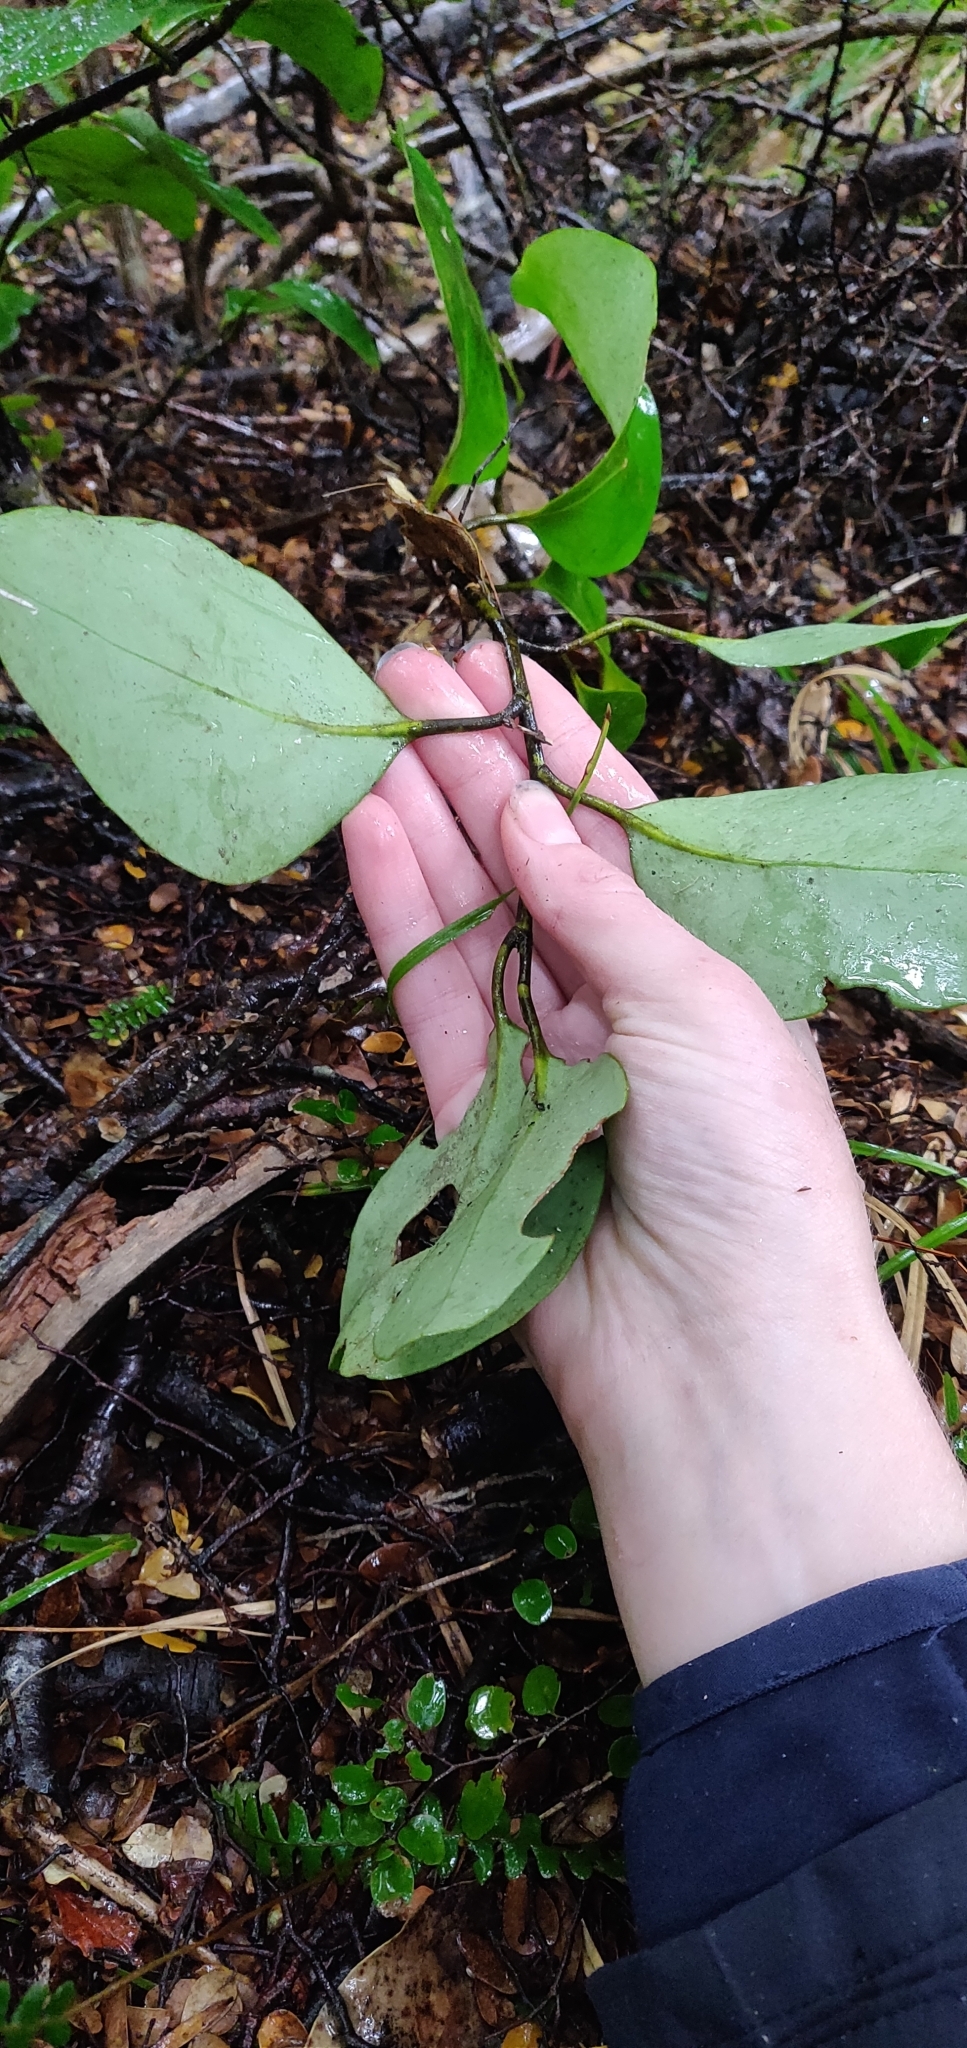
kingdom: Plantae
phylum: Tracheophyta
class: Magnoliopsida
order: Apiales
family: Griseliniaceae
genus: Griselinia
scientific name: Griselinia littoralis
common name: New zealand broadleaf
